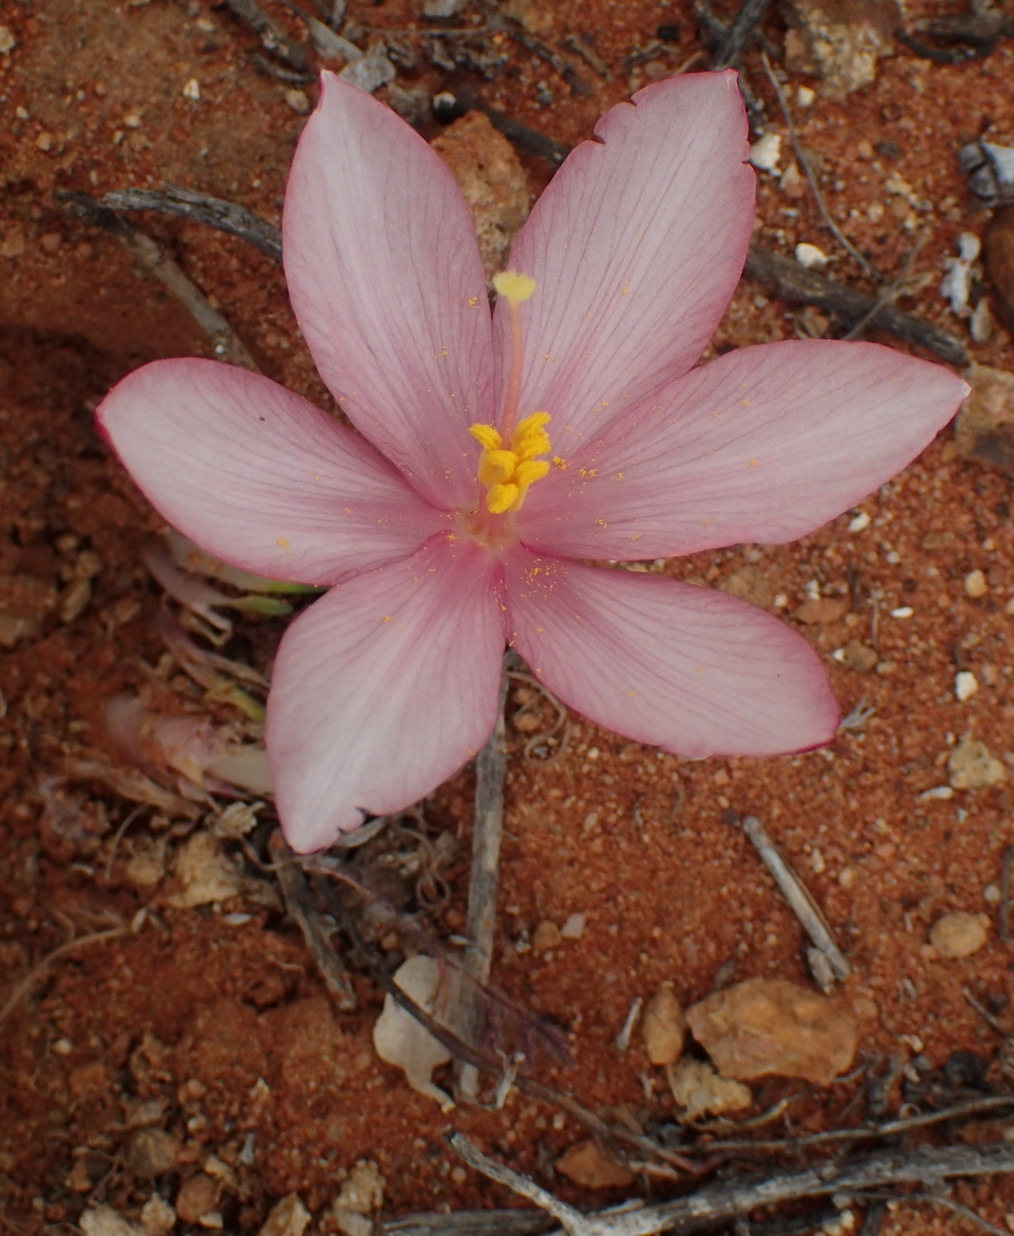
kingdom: Plantae
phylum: Tracheophyta
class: Liliopsida
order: Asparagales
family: Amaryllidaceae
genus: Gethyllis
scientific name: Gethyllis linearis
